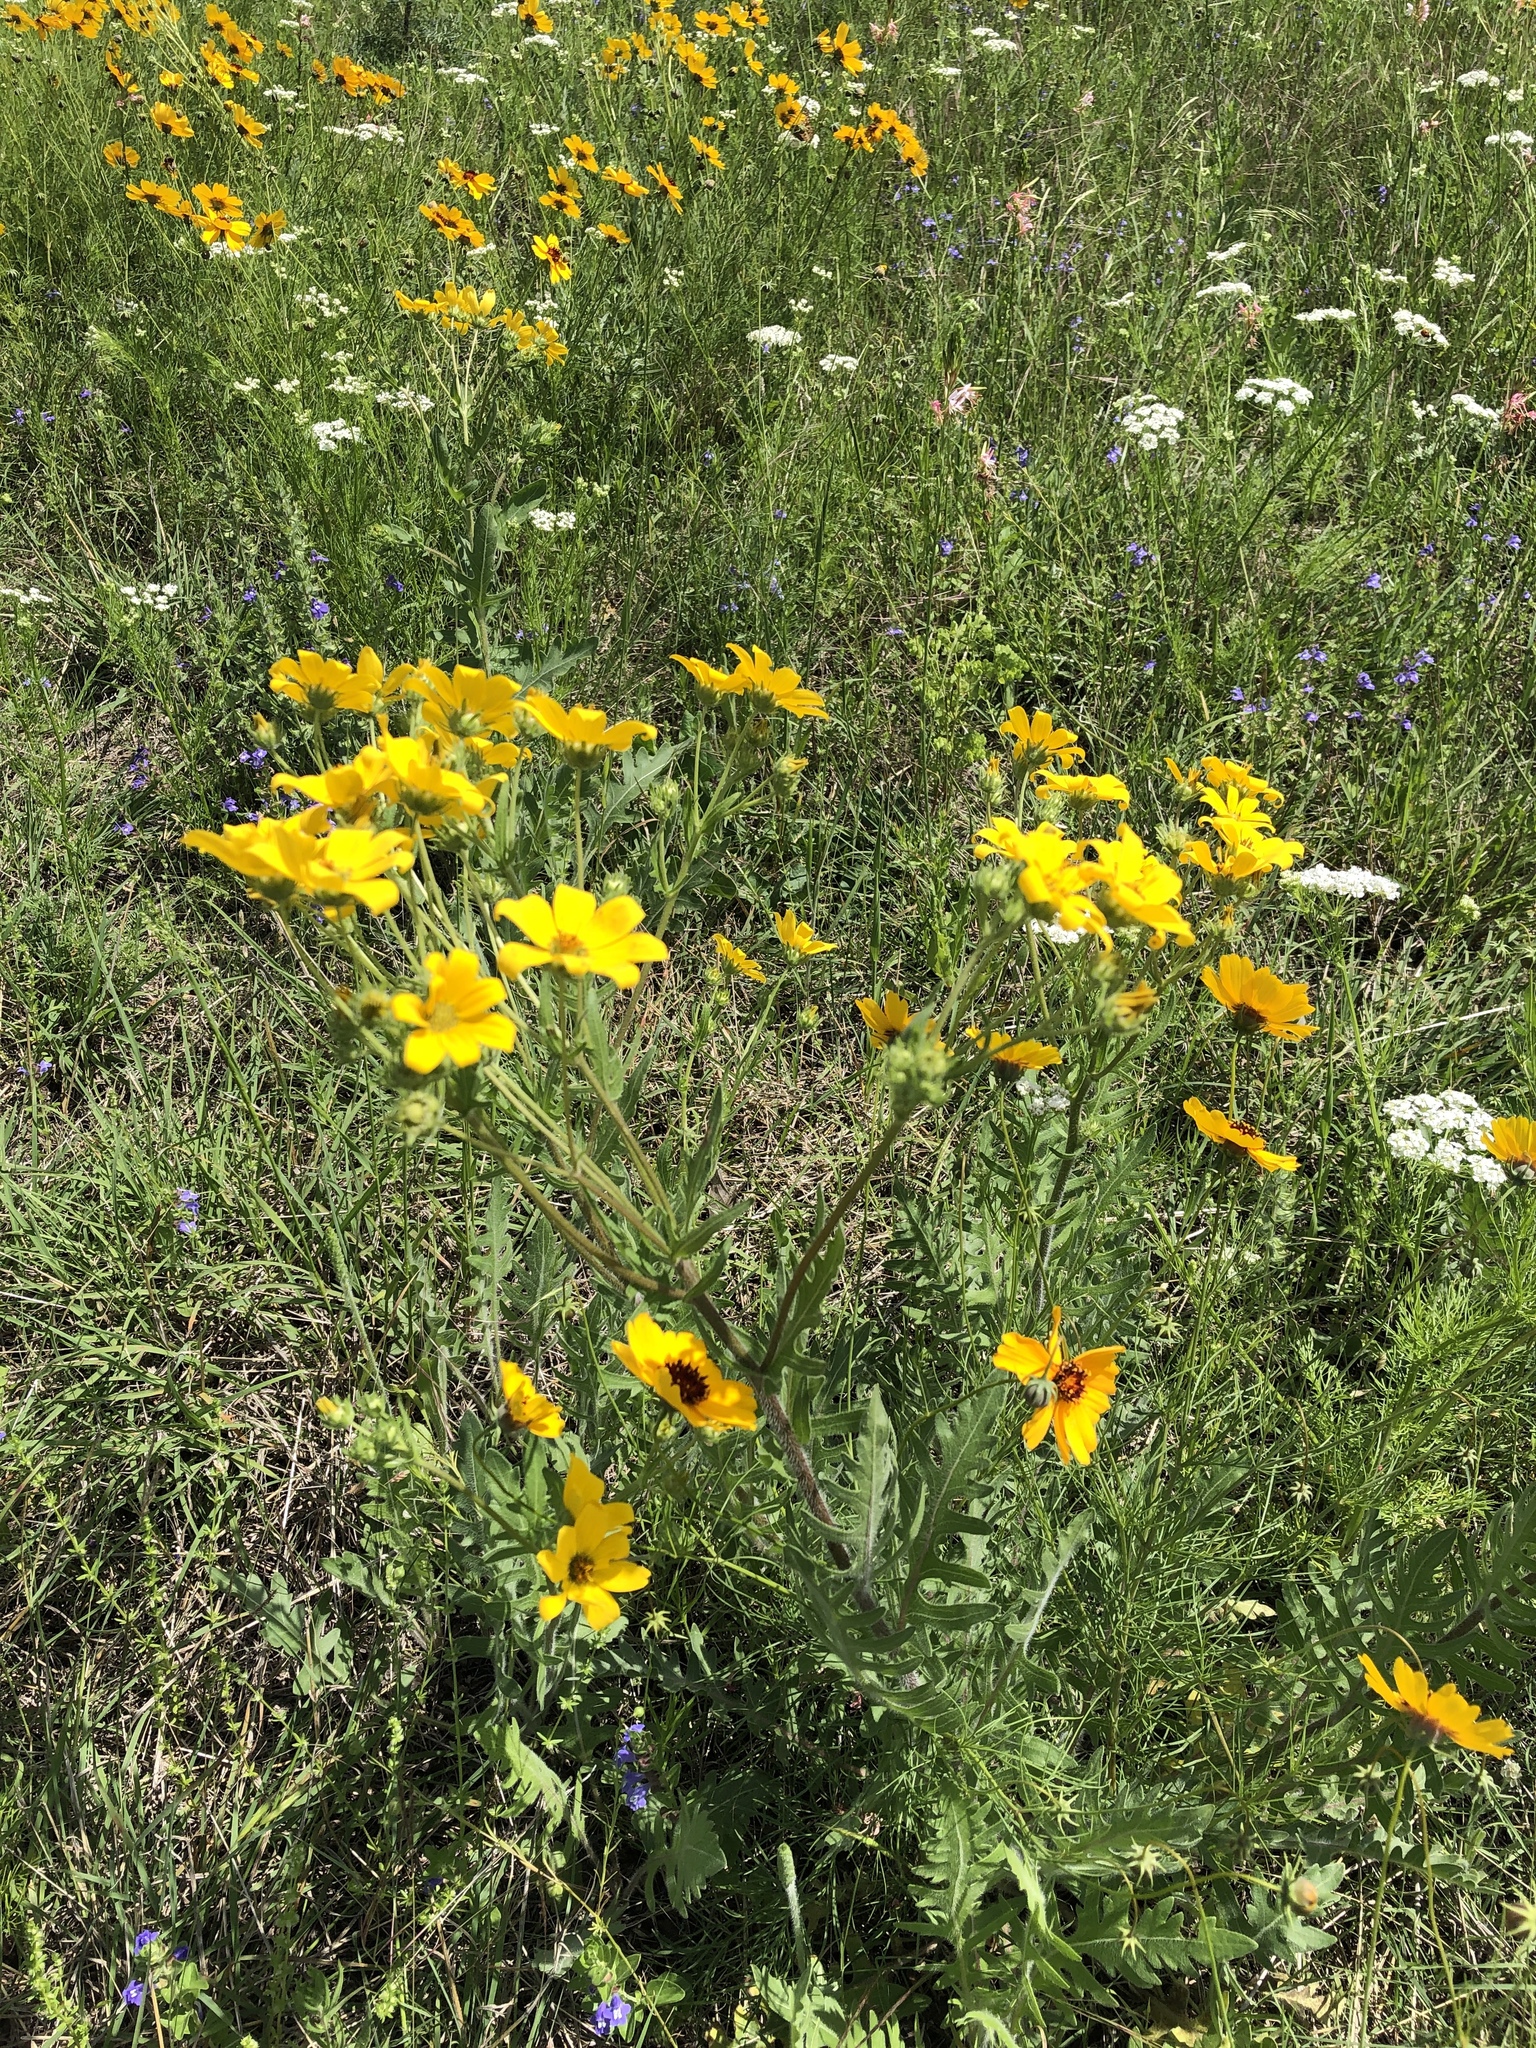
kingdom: Plantae
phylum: Tracheophyta
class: Magnoliopsida
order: Asterales
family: Asteraceae
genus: Engelmannia
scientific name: Engelmannia peristenia
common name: Engelmann's daisy
